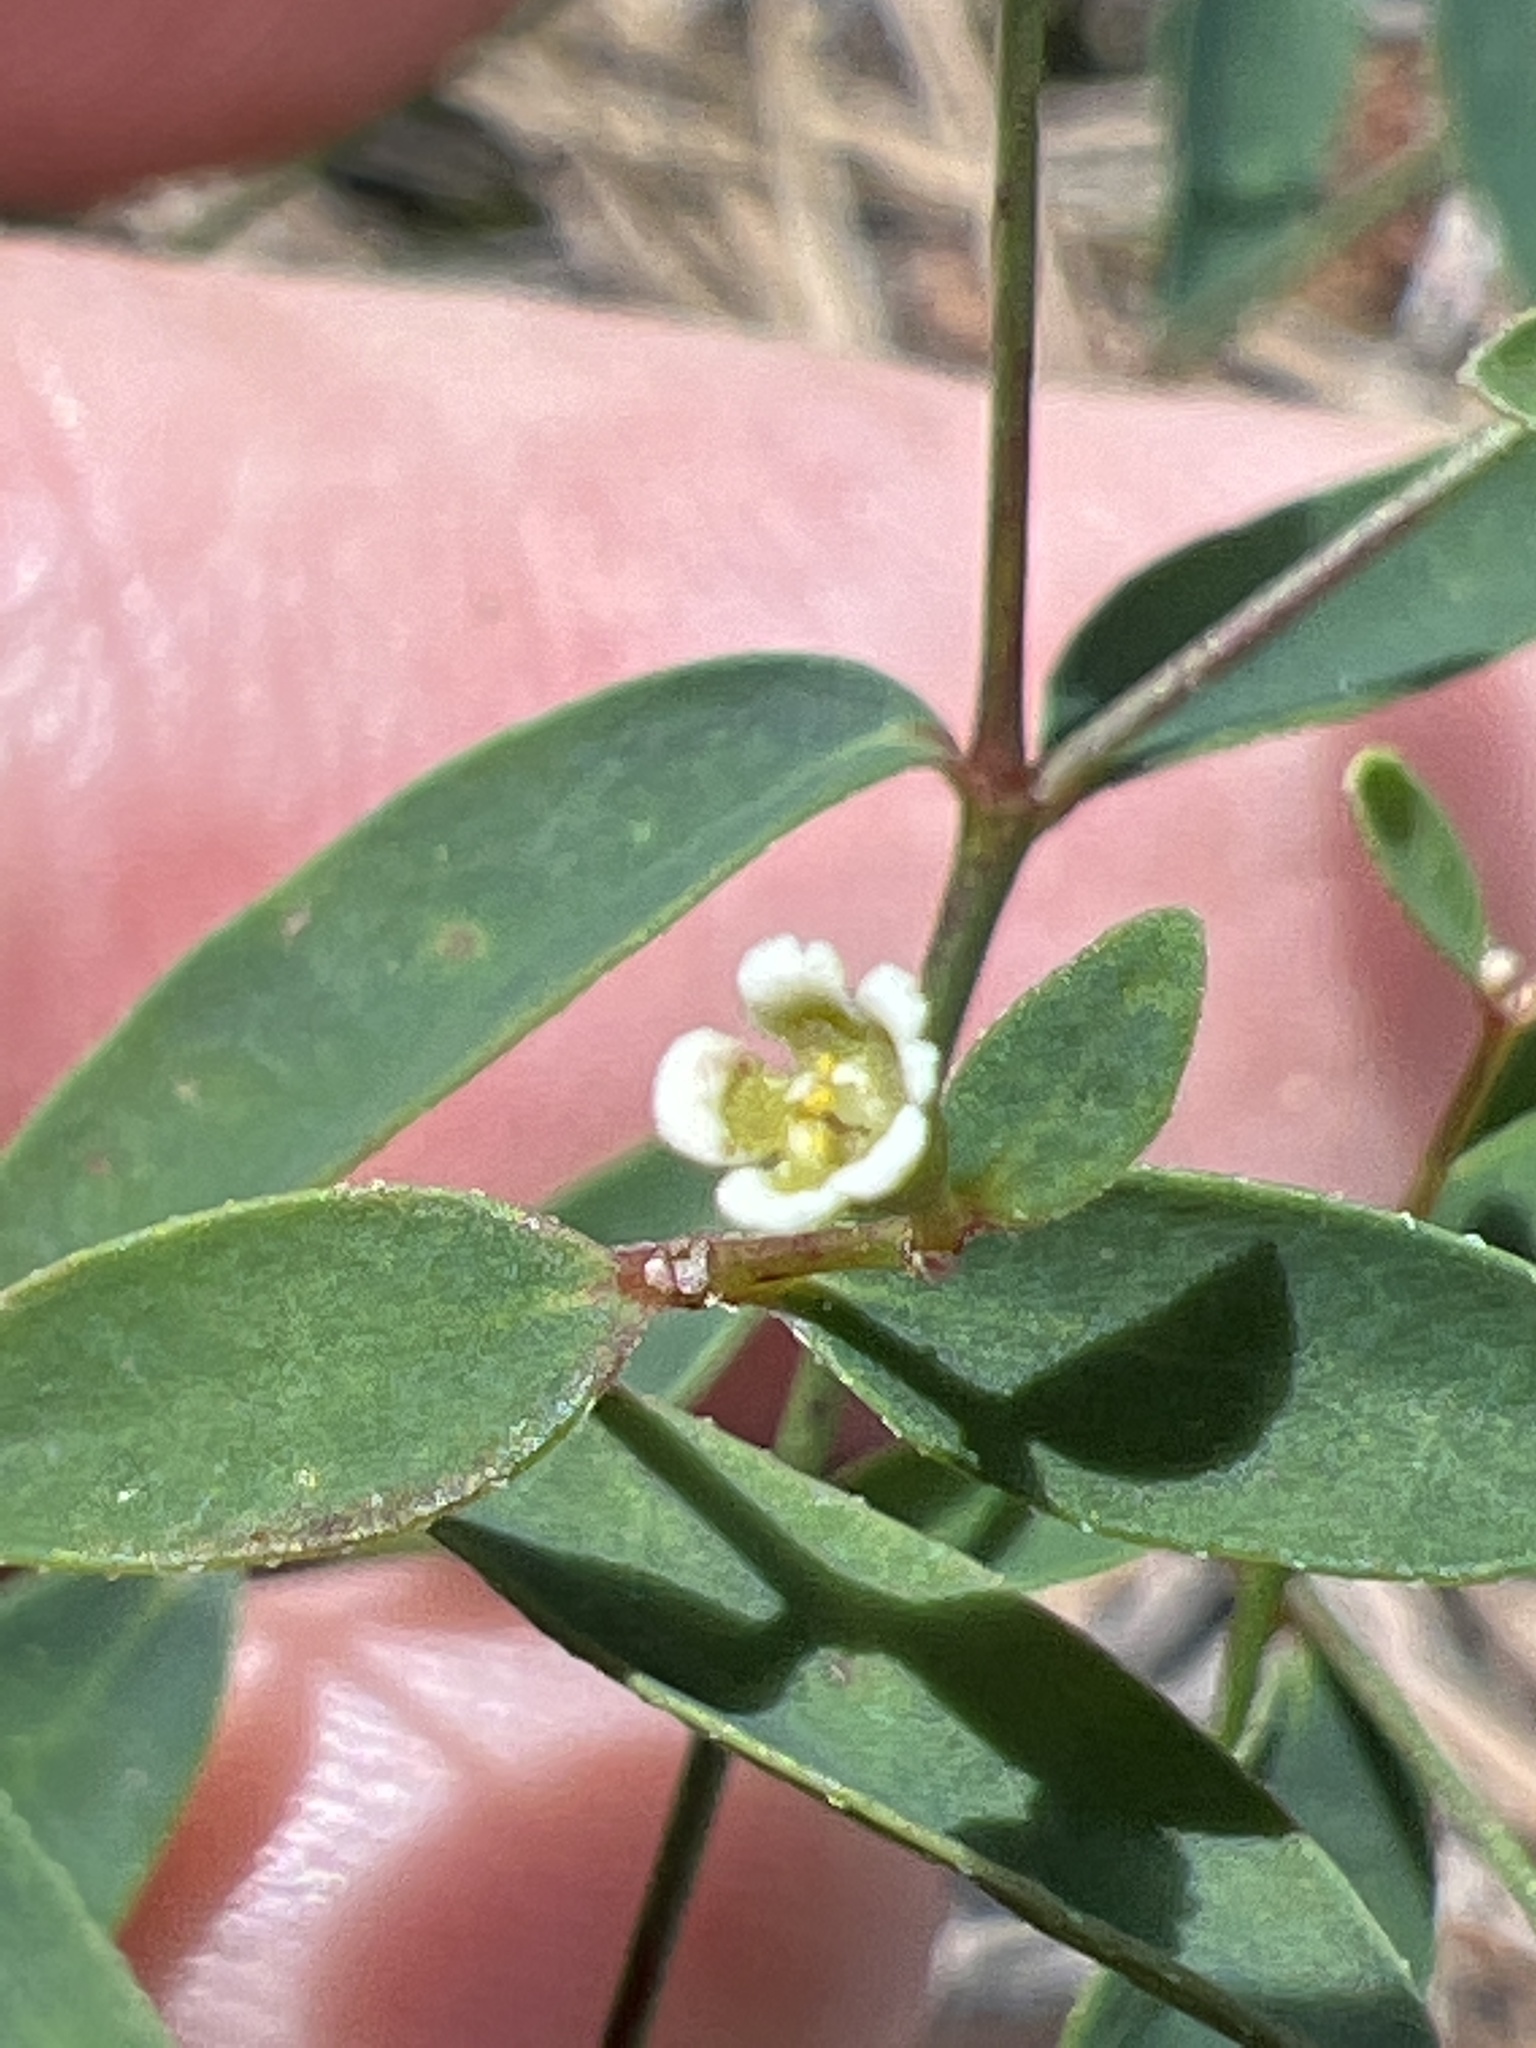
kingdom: Plantae
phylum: Tracheophyta
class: Magnoliopsida
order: Malpighiales
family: Euphorbiaceae
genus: Euphorbia
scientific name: Euphorbia curtisii
